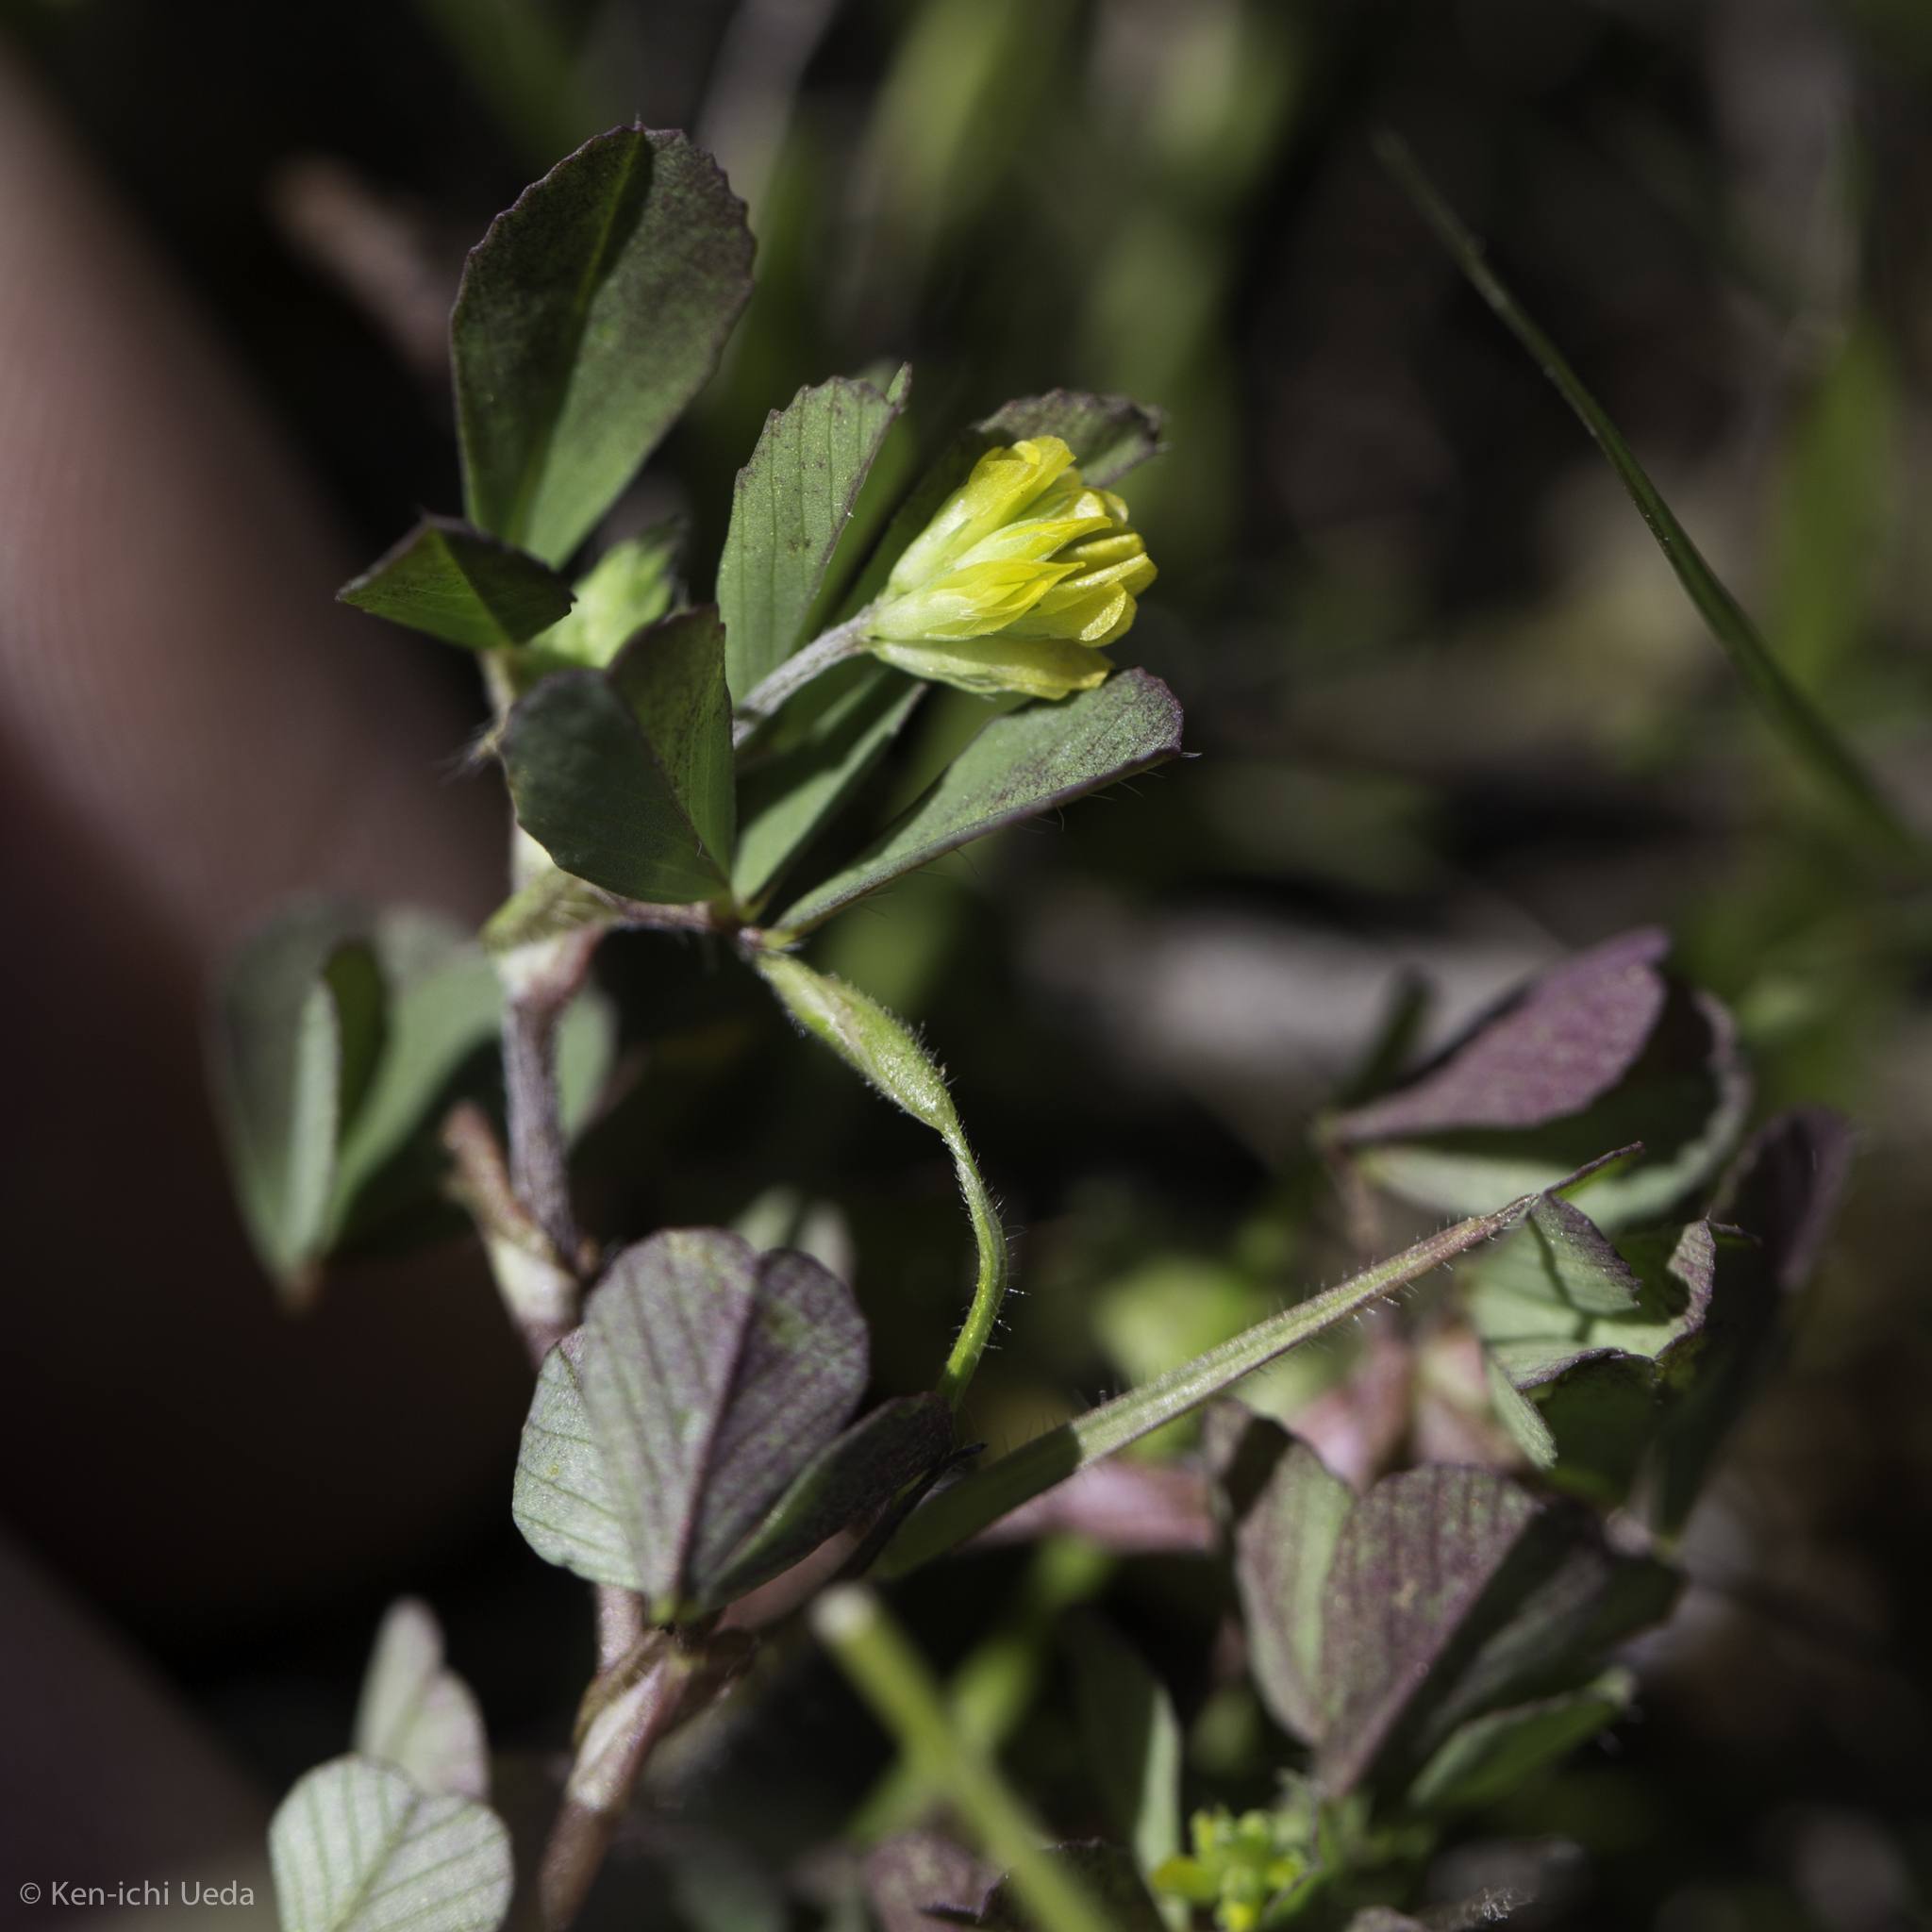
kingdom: Plantae
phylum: Tracheophyta
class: Magnoliopsida
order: Fabales
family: Fabaceae
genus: Trifolium
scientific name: Trifolium dubium
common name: Suckling clover
